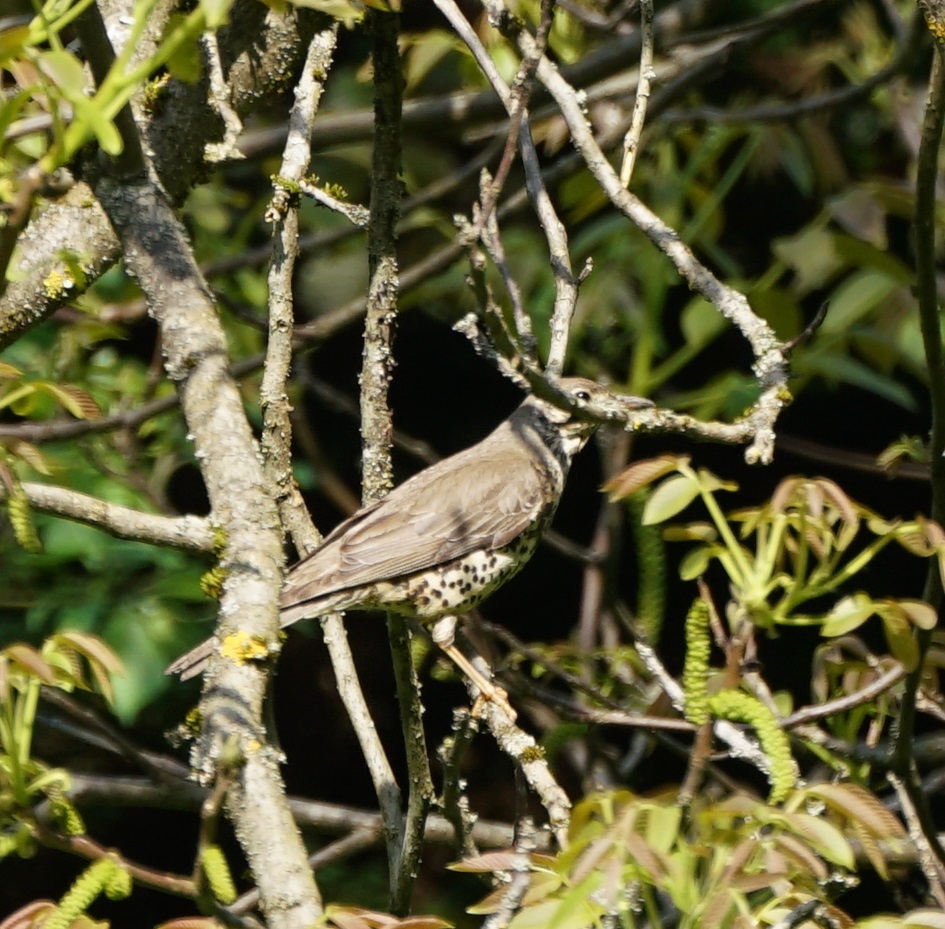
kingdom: Animalia
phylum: Chordata
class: Aves
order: Passeriformes
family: Turdidae
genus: Turdus
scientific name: Turdus viscivorus
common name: Mistle thrush
